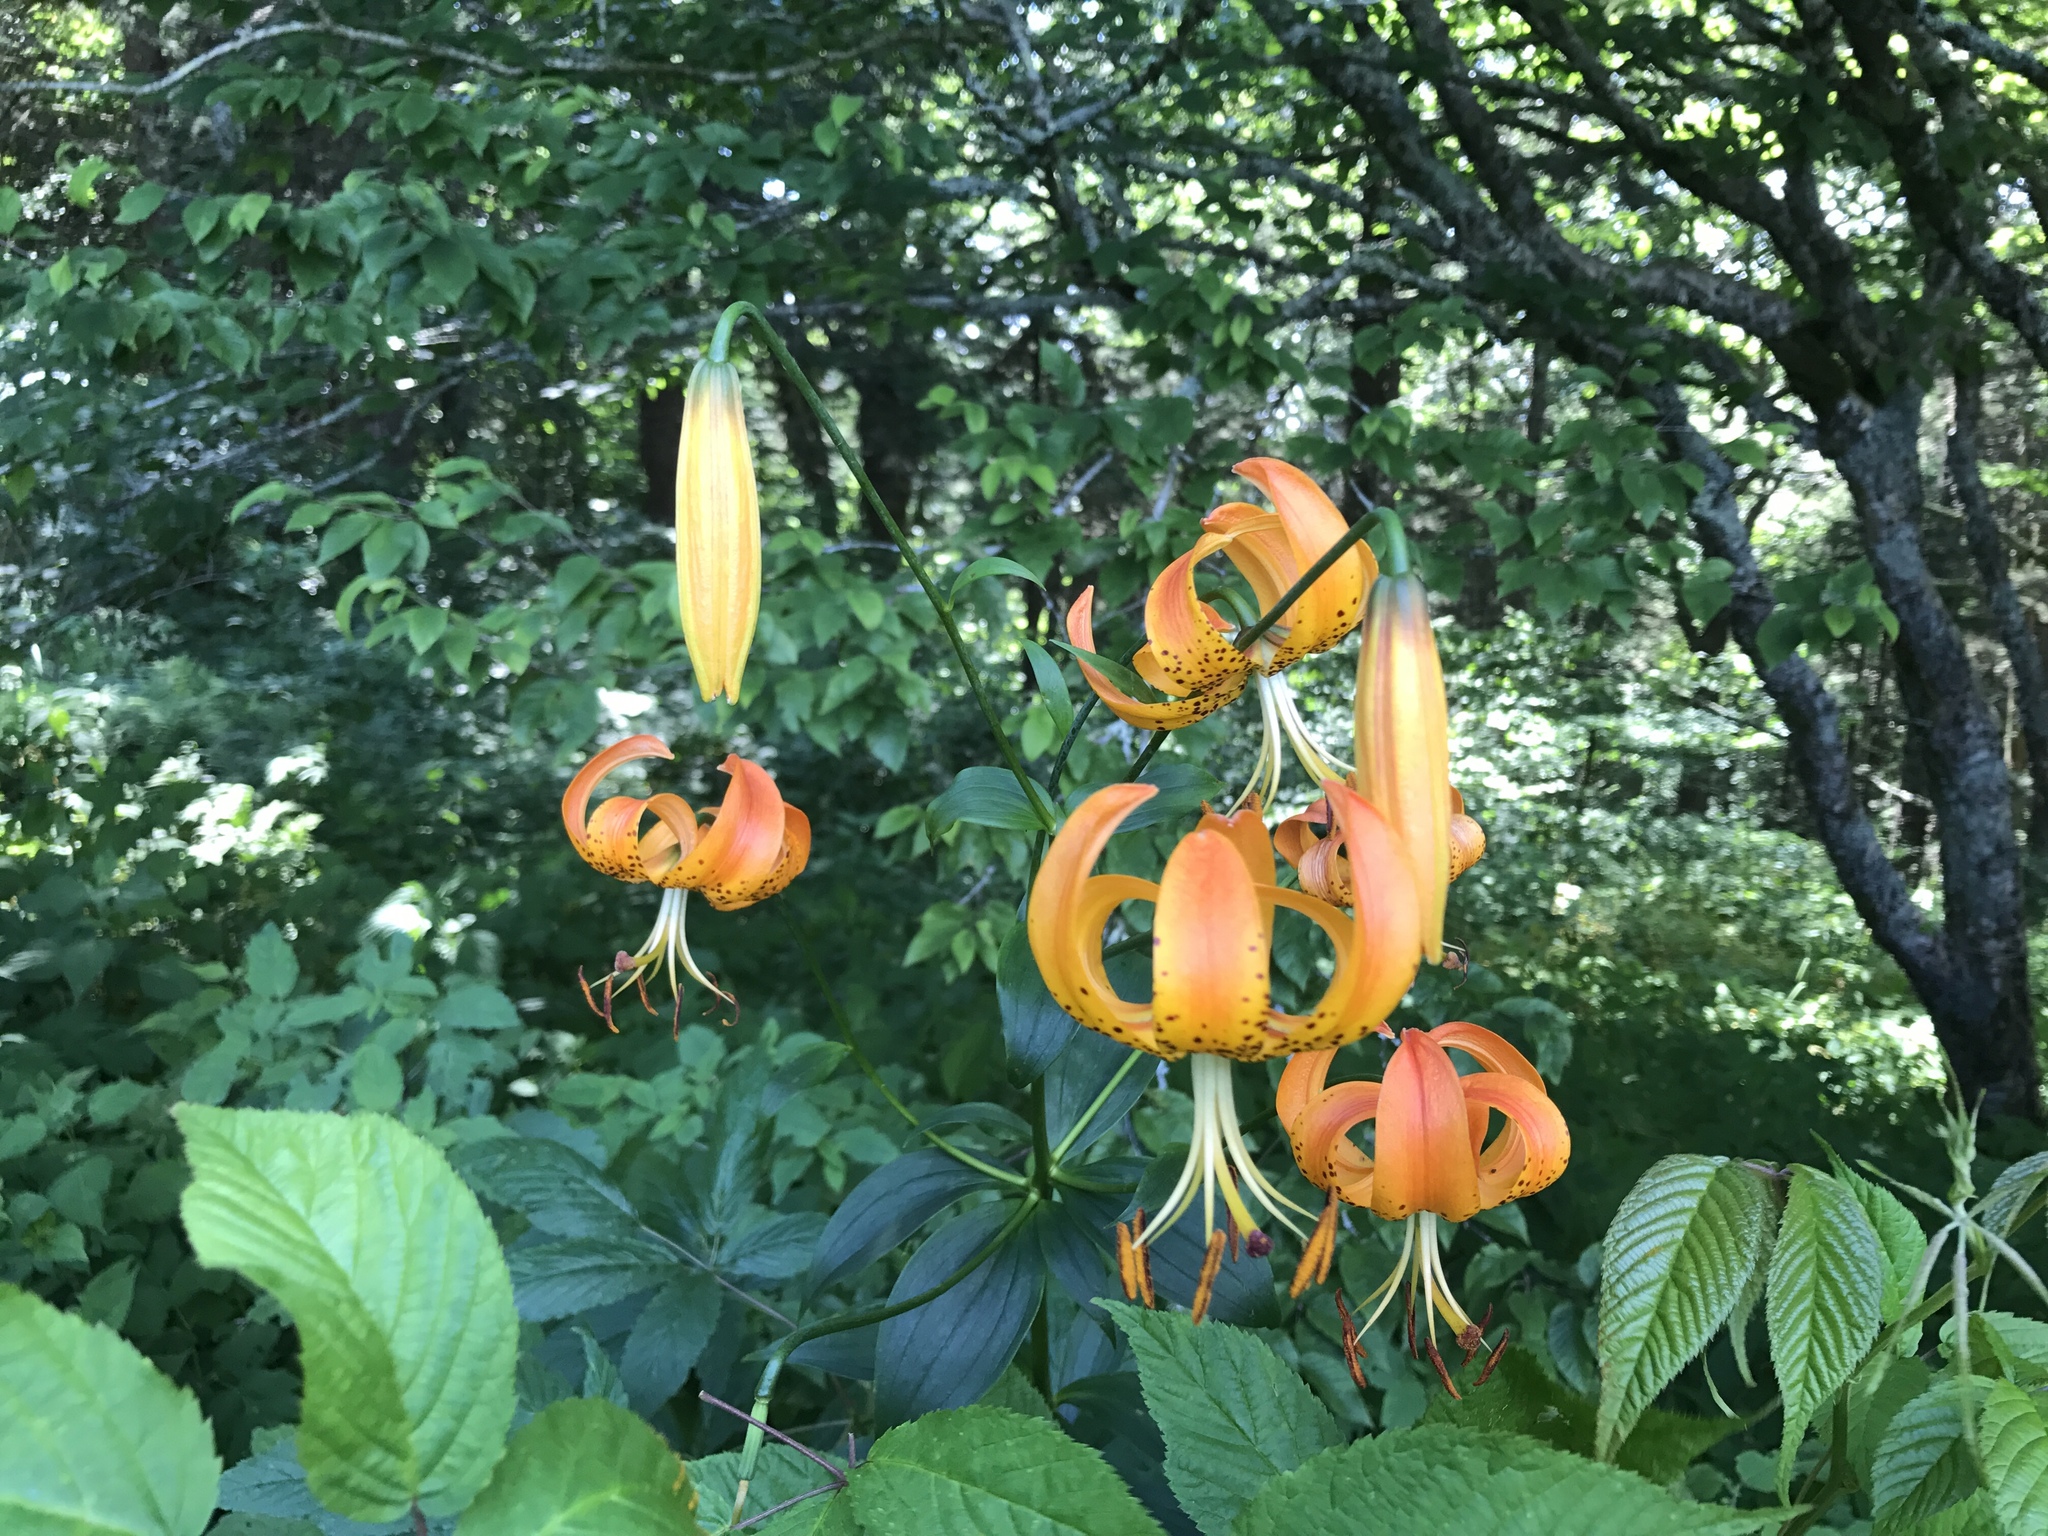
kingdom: Plantae
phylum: Tracheophyta
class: Liliopsida
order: Liliales
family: Liliaceae
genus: Lilium
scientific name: Lilium superbum
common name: American turk's-cap lily
